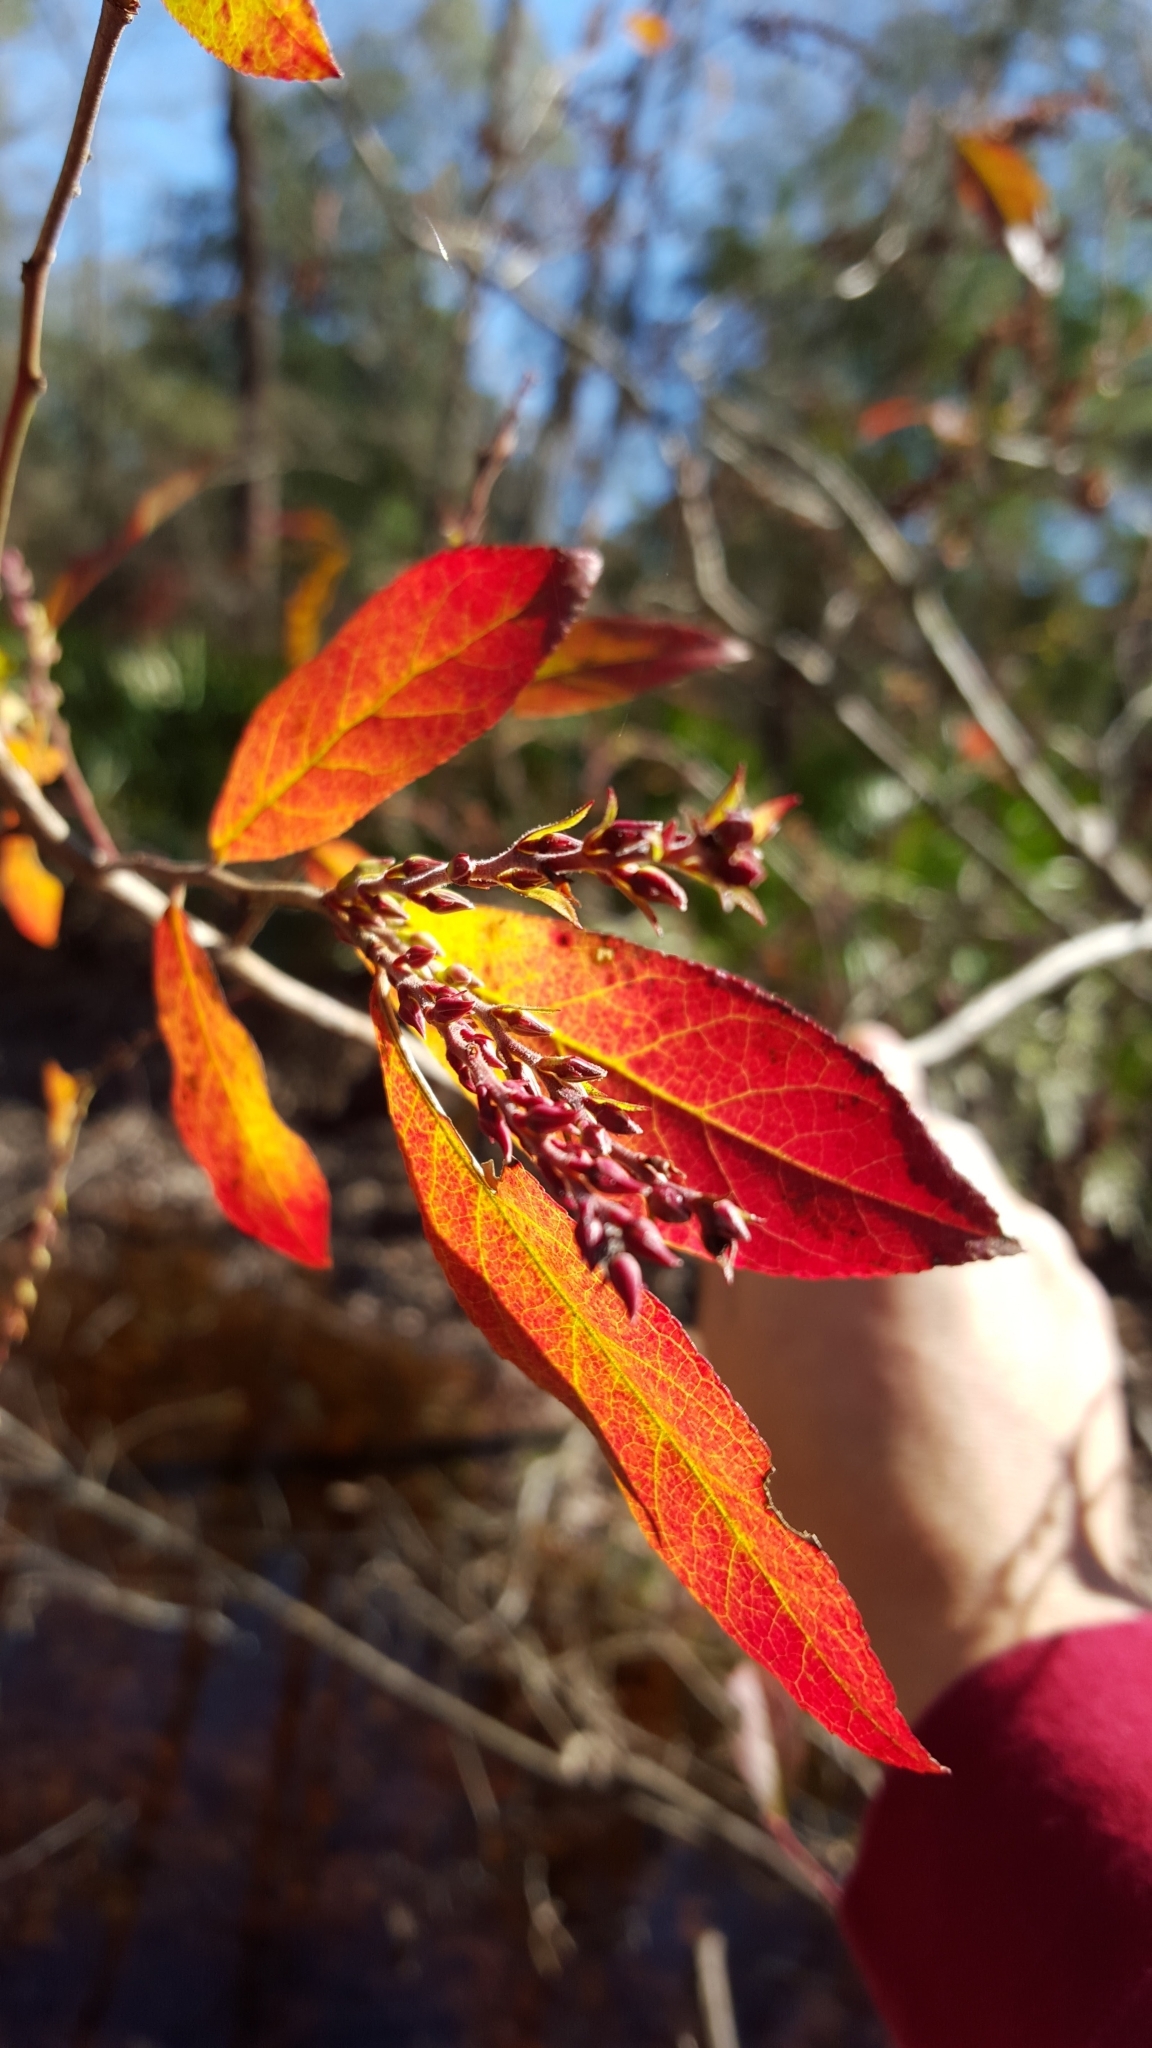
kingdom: Plantae
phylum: Tracheophyta
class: Magnoliopsida
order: Ericales
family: Ericaceae
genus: Eubotrys
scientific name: Eubotrys racemosa
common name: Fetterbush
